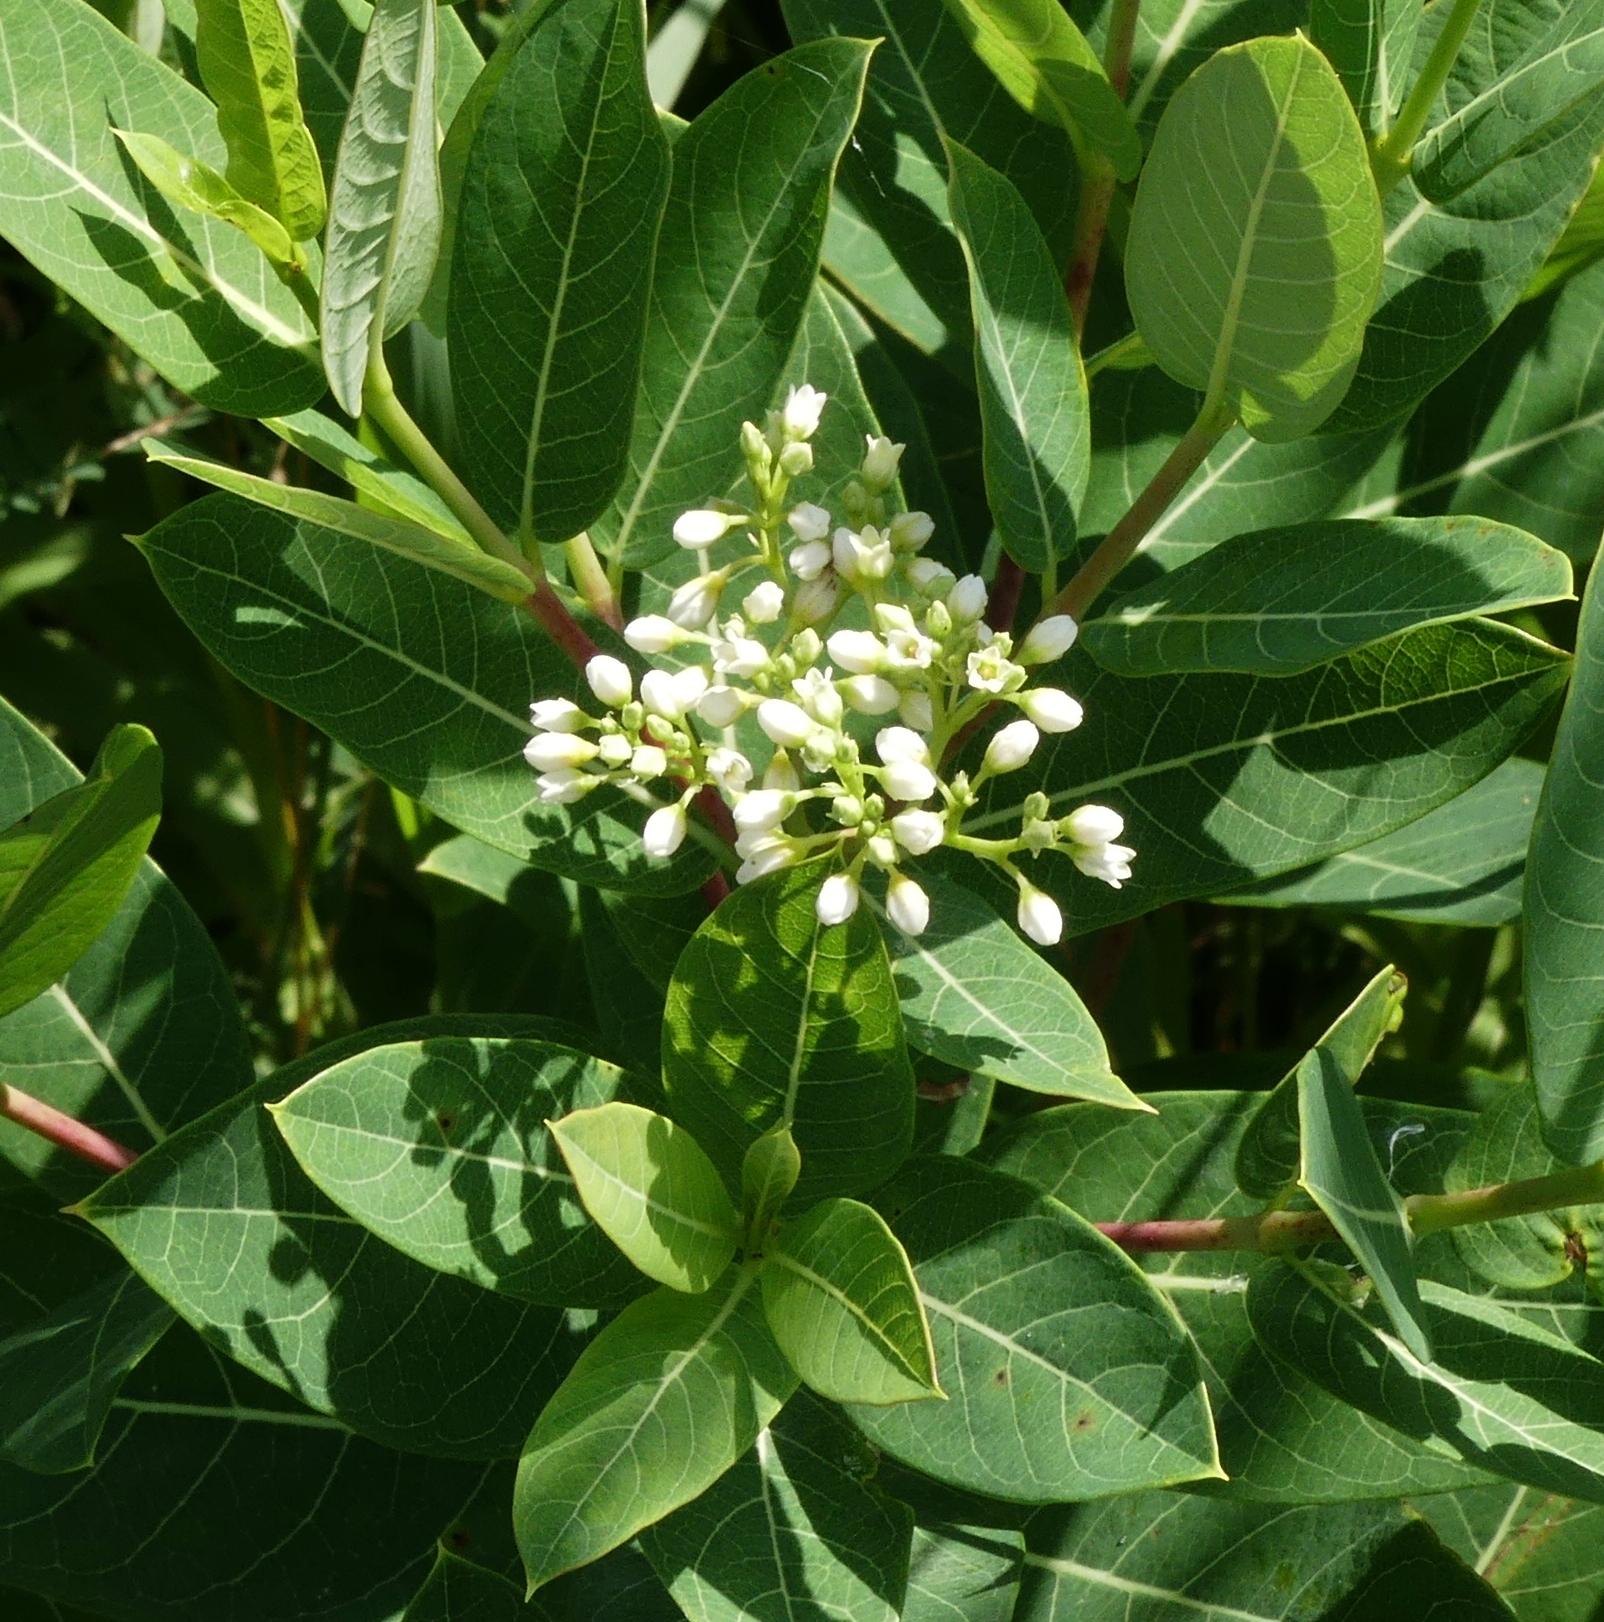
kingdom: Plantae
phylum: Tracheophyta
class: Magnoliopsida
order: Gentianales
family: Apocynaceae
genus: Apocynum
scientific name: Apocynum cannabinum
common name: Hemp dogbane
